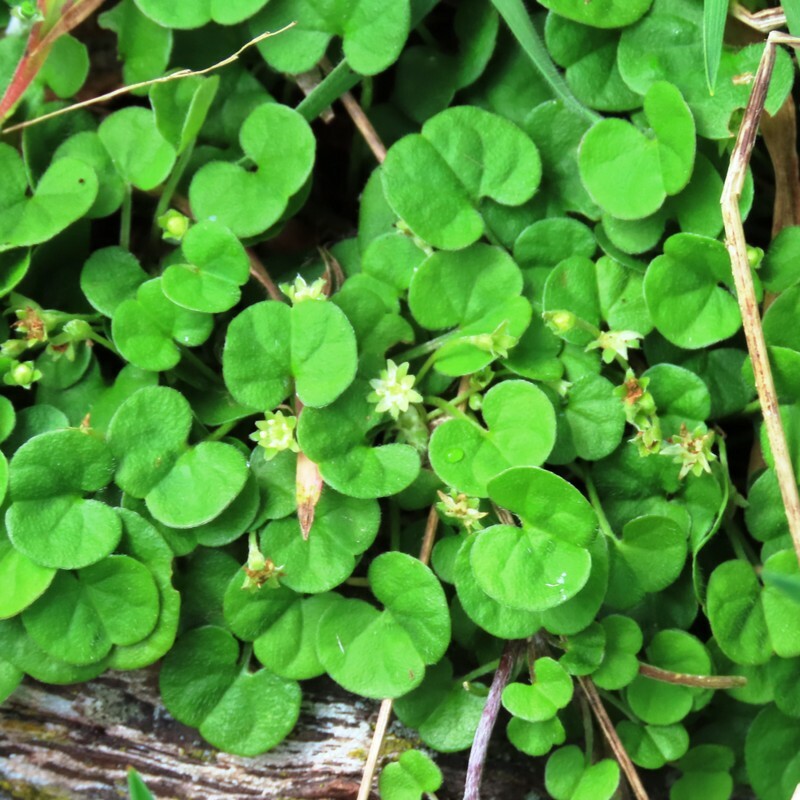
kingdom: Plantae
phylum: Tracheophyta
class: Magnoliopsida
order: Solanales
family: Convolvulaceae
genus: Dichondra
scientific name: Dichondra repens
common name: Kidneyweed
